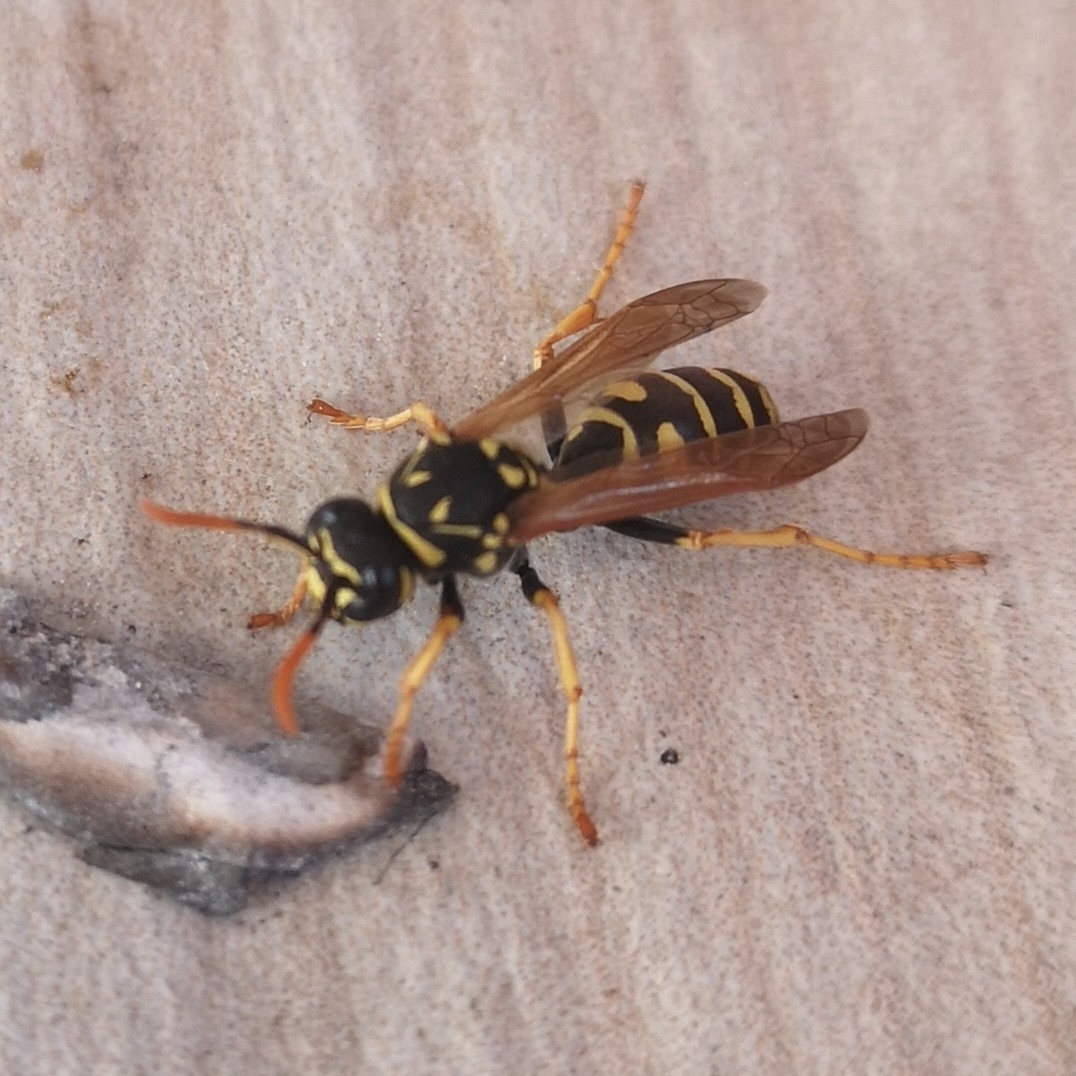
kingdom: Animalia
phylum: Arthropoda
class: Insecta
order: Hymenoptera
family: Eumenidae
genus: Polistes
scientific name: Polistes dominula
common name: Paper wasp
